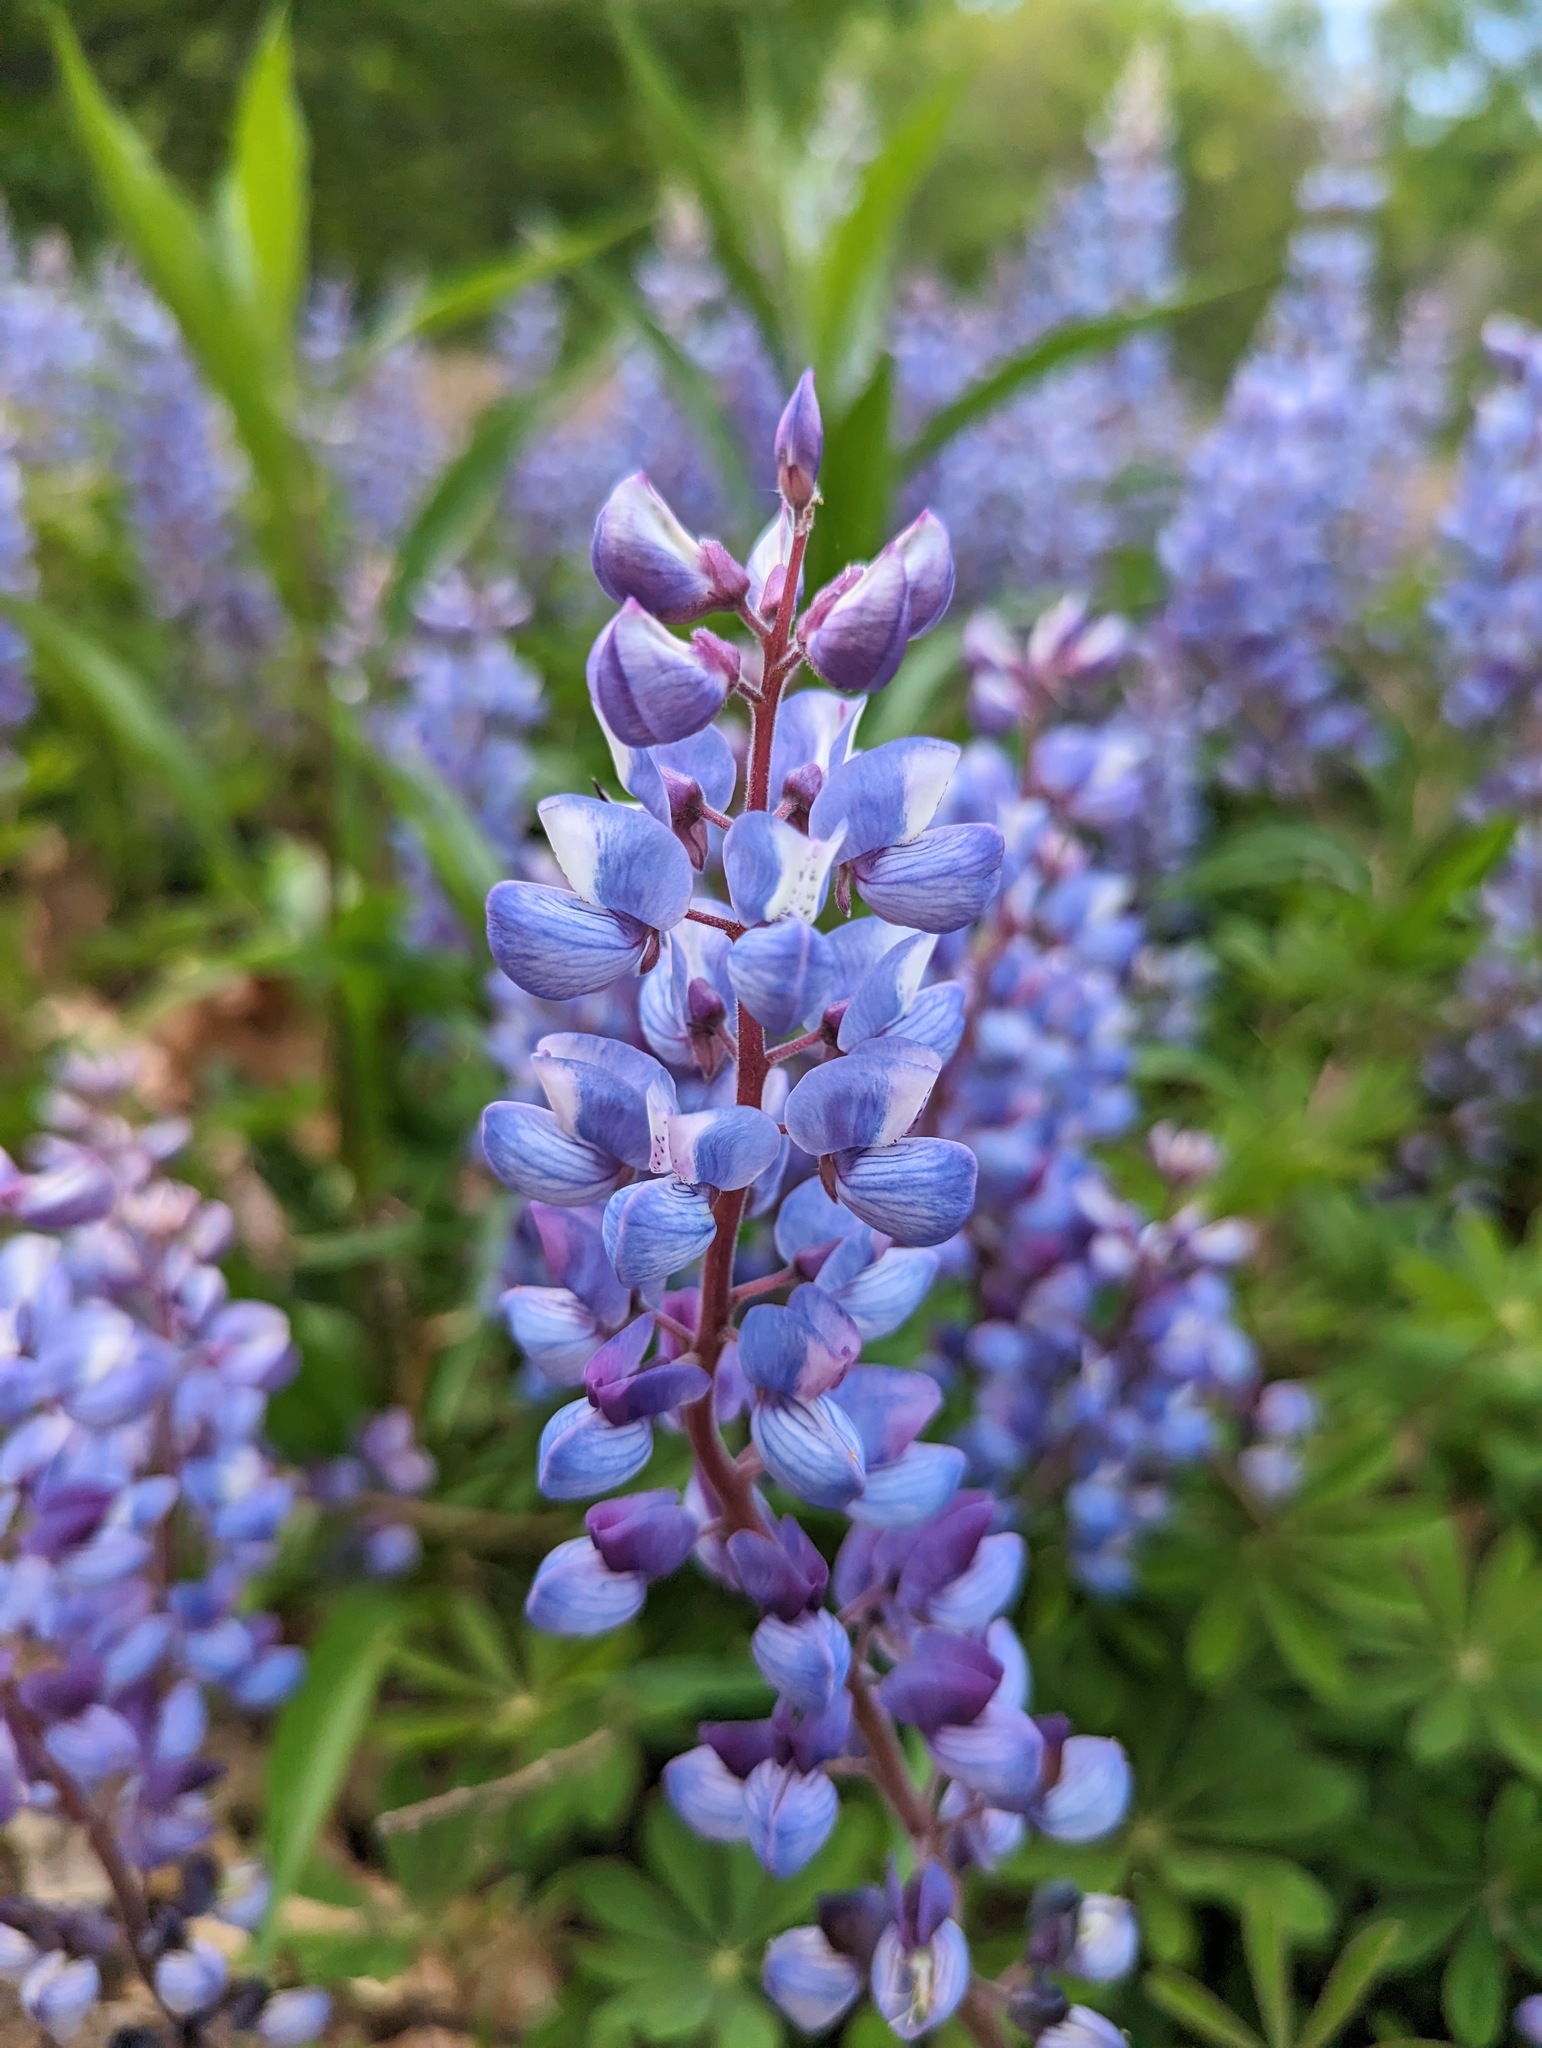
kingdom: Plantae
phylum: Tracheophyta
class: Magnoliopsida
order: Fabales
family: Fabaceae
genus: Lupinus
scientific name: Lupinus perennis
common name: Sundial lupine
